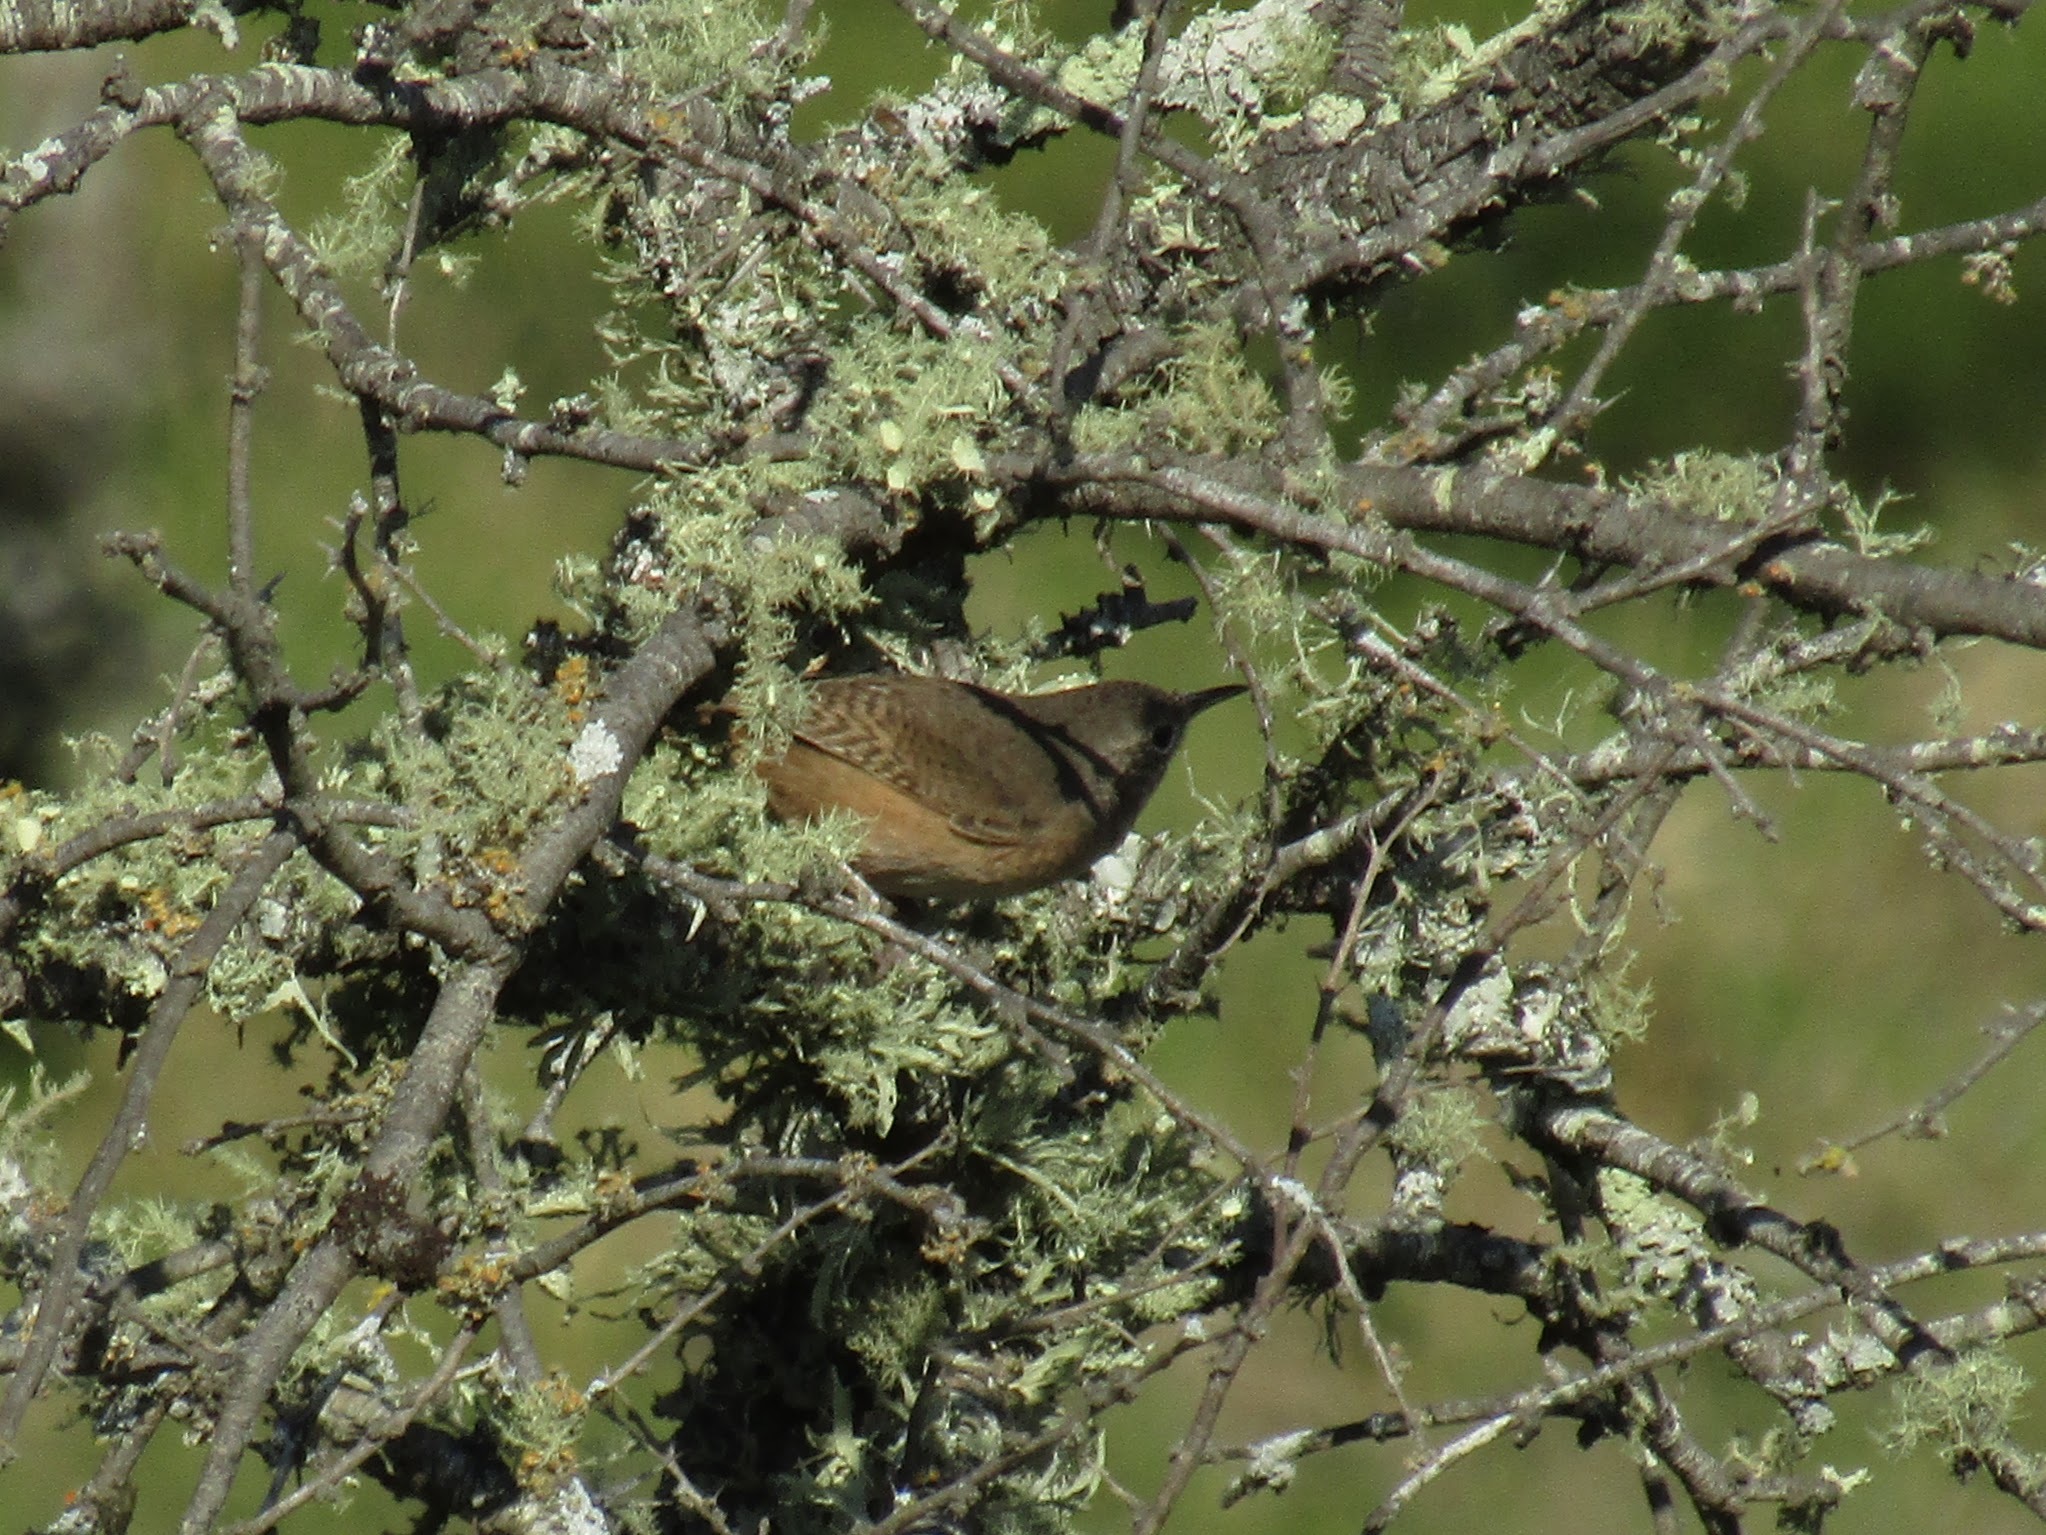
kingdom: Animalia
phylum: Chordata
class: Aves
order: Passeriformes
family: Troglodytidae
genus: Troglodytes
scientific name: Troglodytes aedon
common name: House wren
